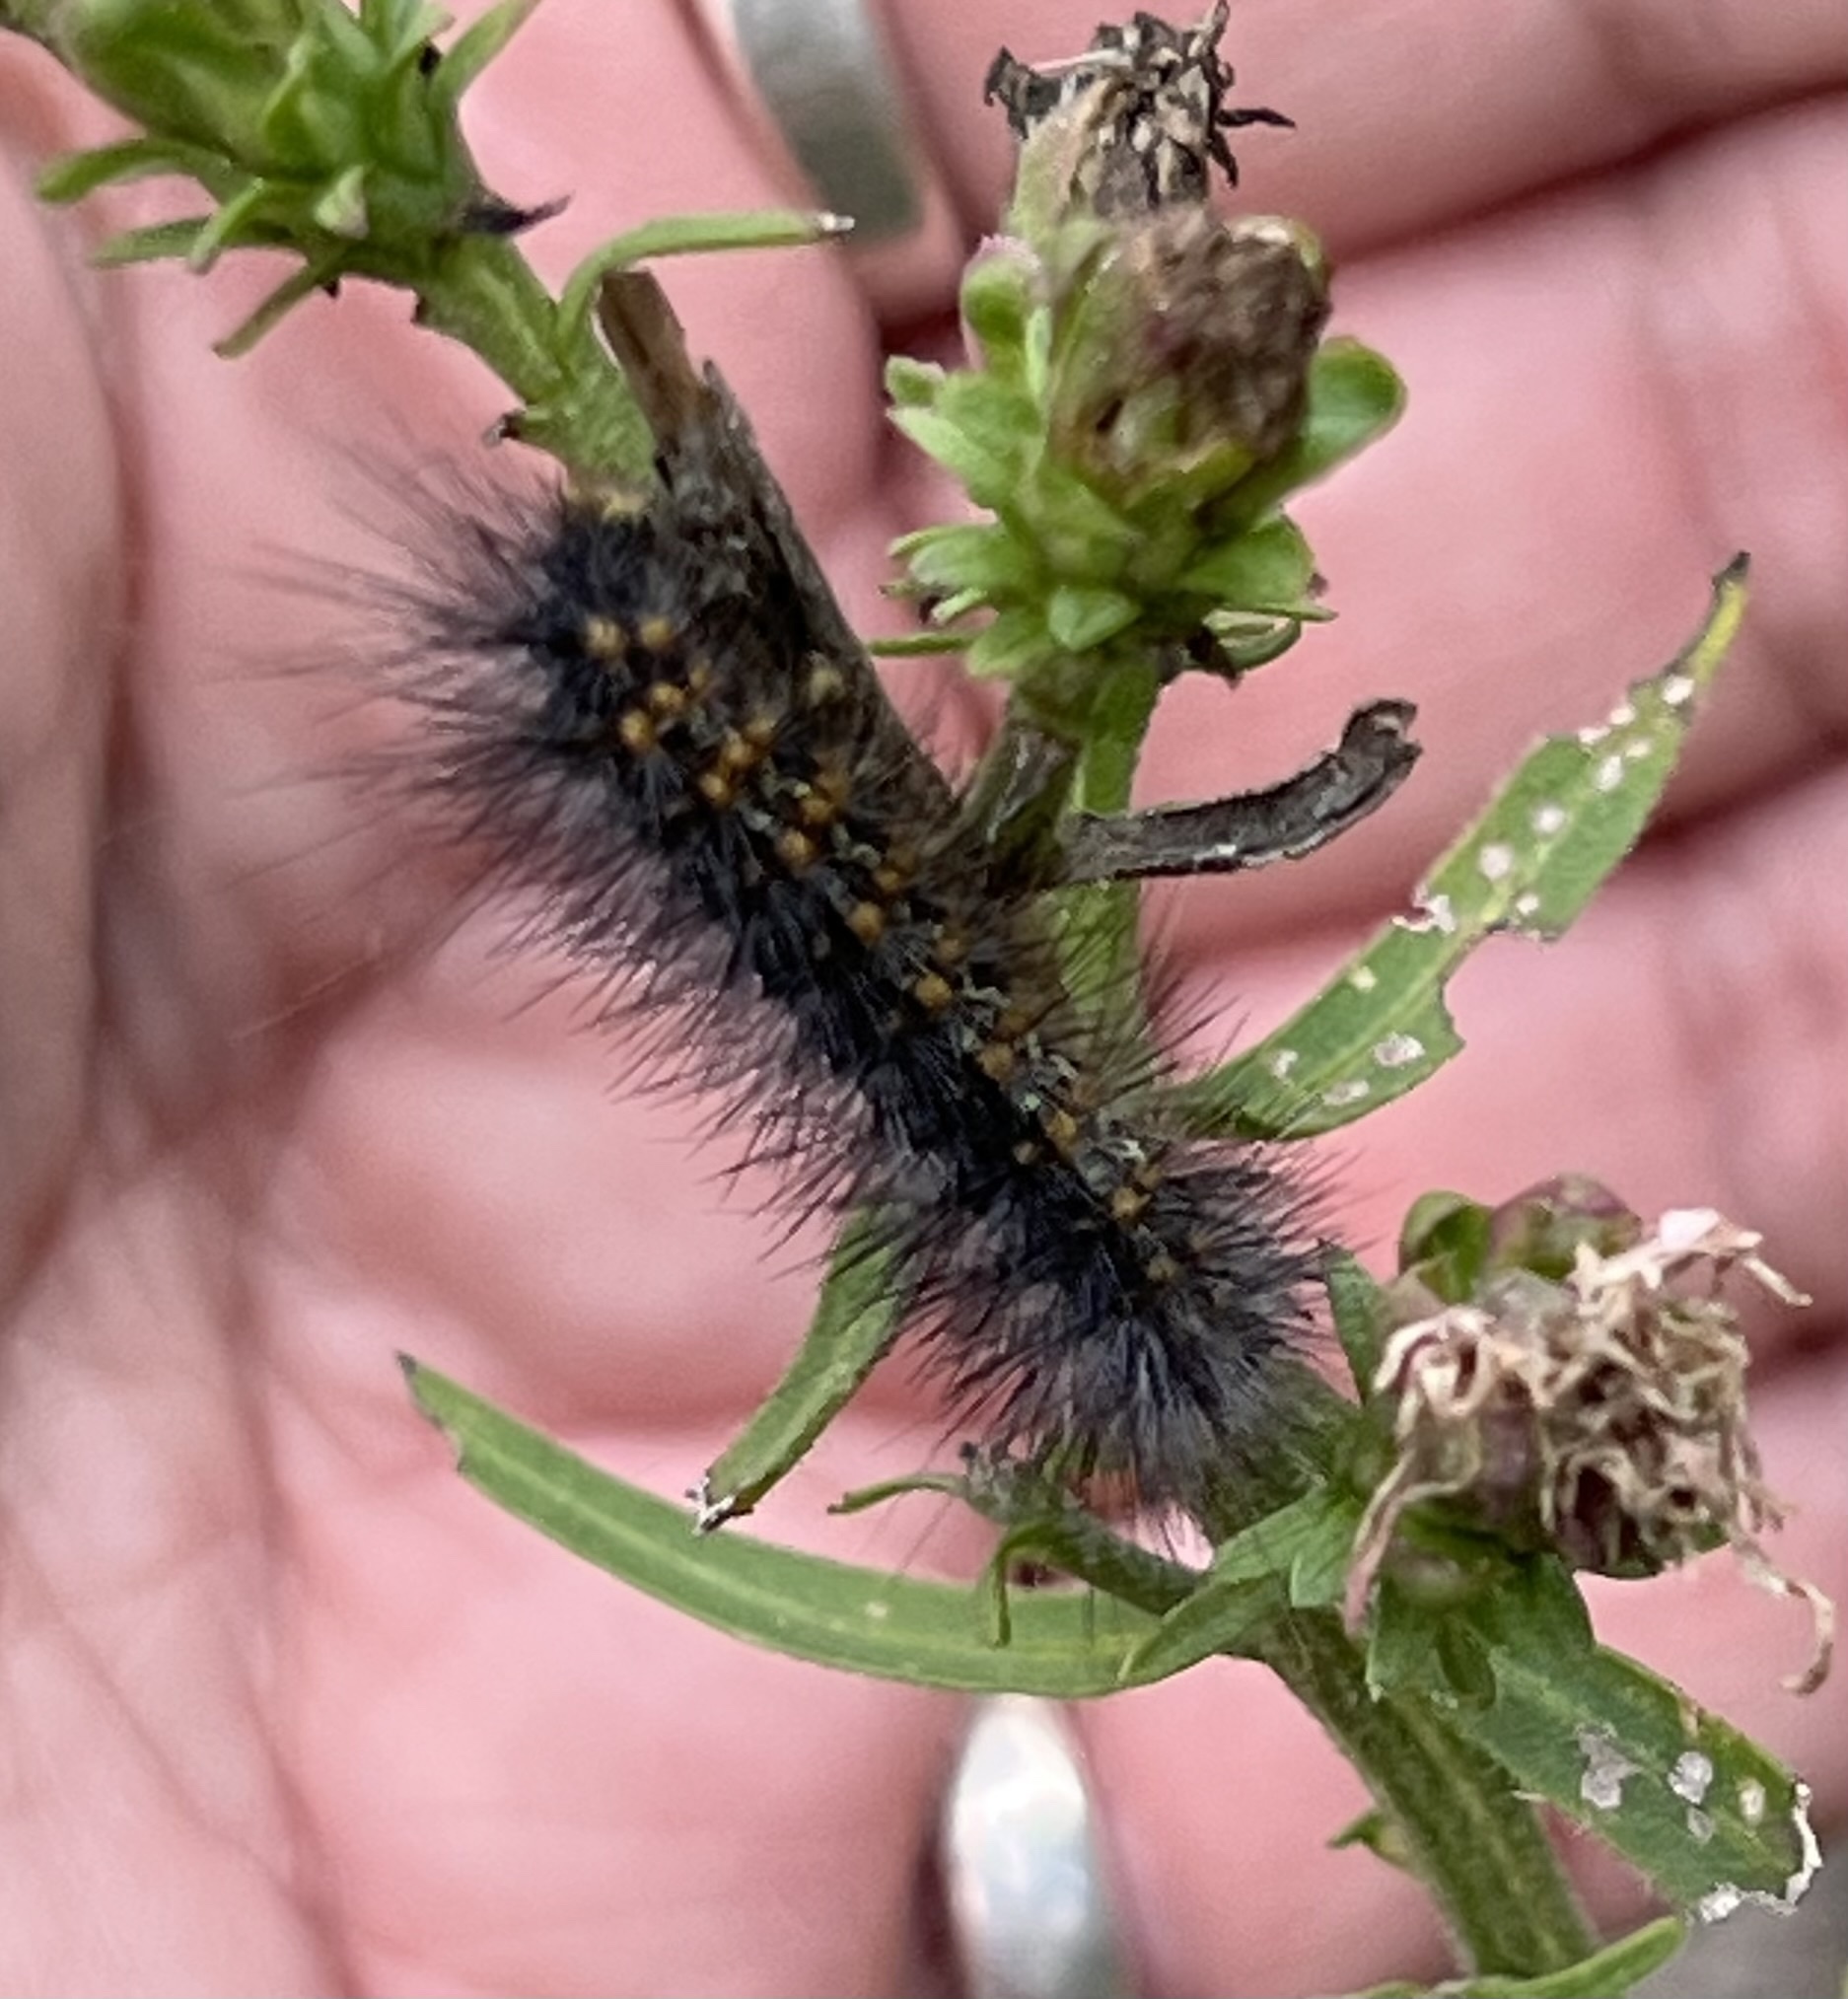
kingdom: Animalia
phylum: Arthropoda
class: Insecta
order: Lepidoptera
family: Erebidae
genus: Estigmene
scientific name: Estigmene acrea
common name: Salt marsh moth
